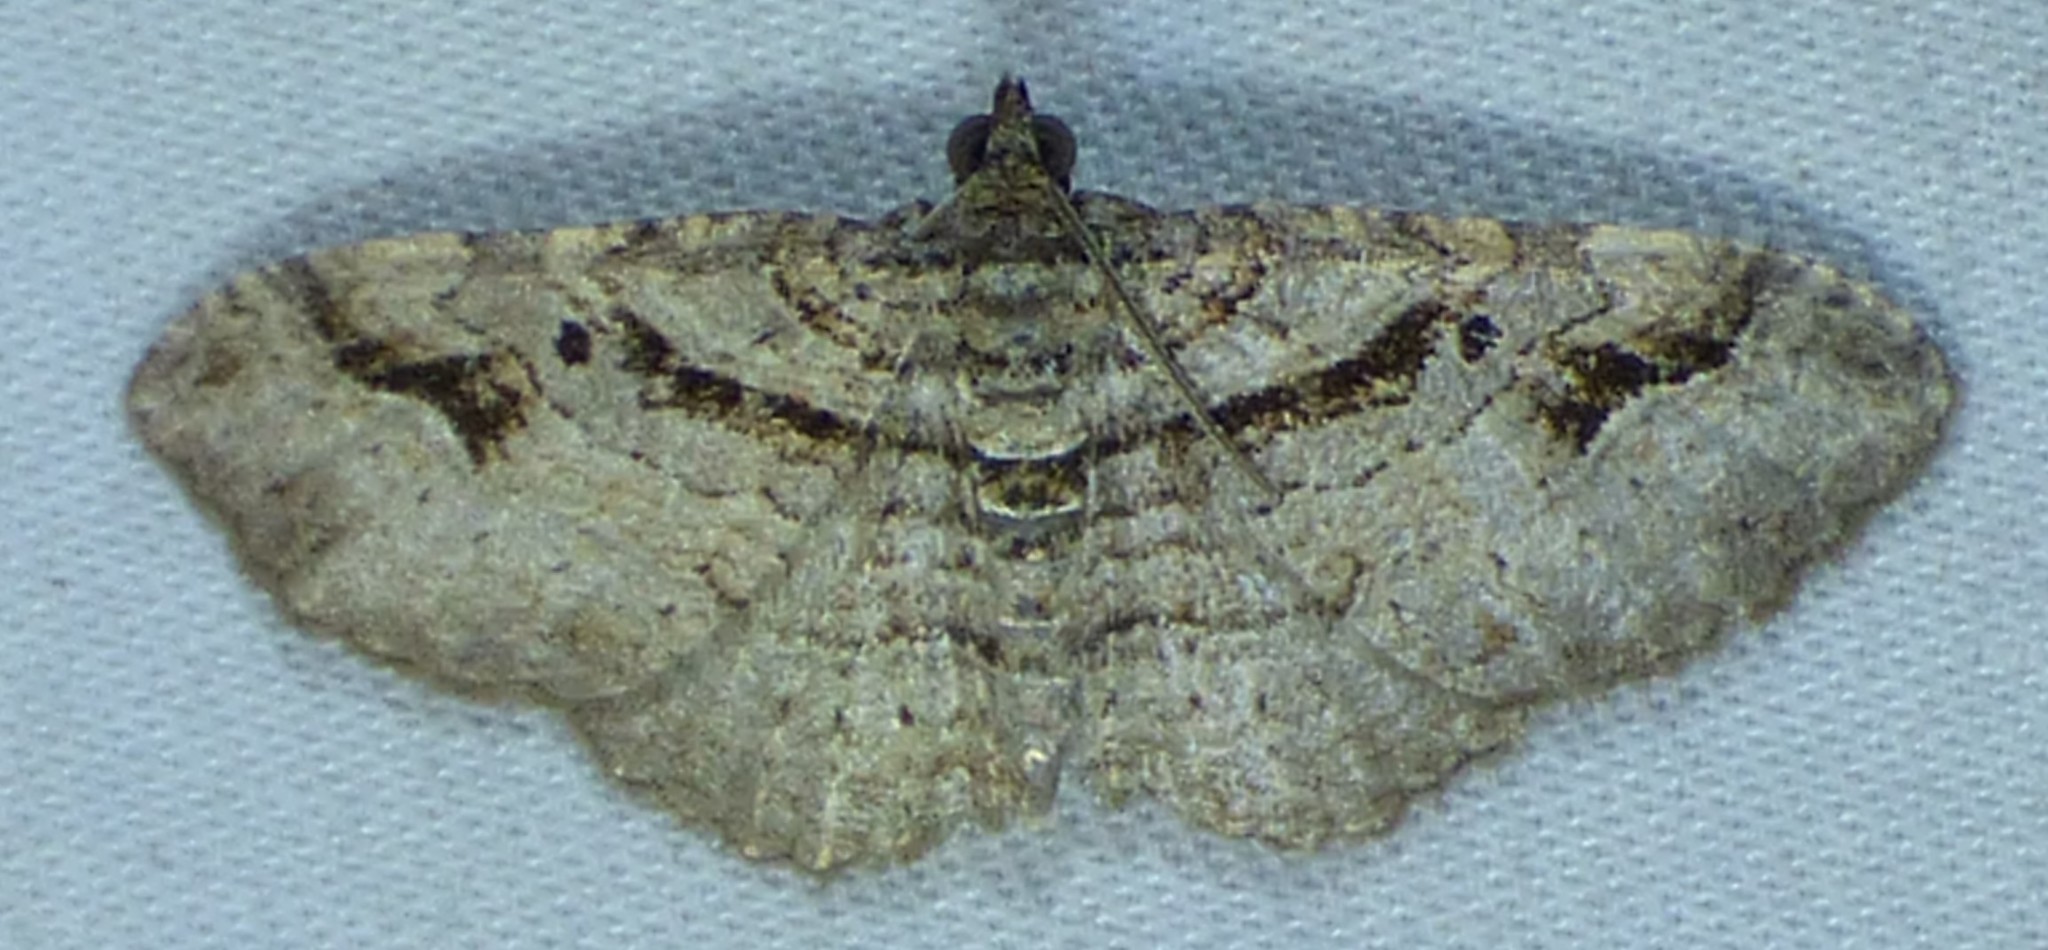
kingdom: Animalia
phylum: Arthropoda
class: Insecta
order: Lepidoptera
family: Geometridae
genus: Costaconvexa
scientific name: Costaconvexa centrostrigaria
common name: Bent-line carpet
